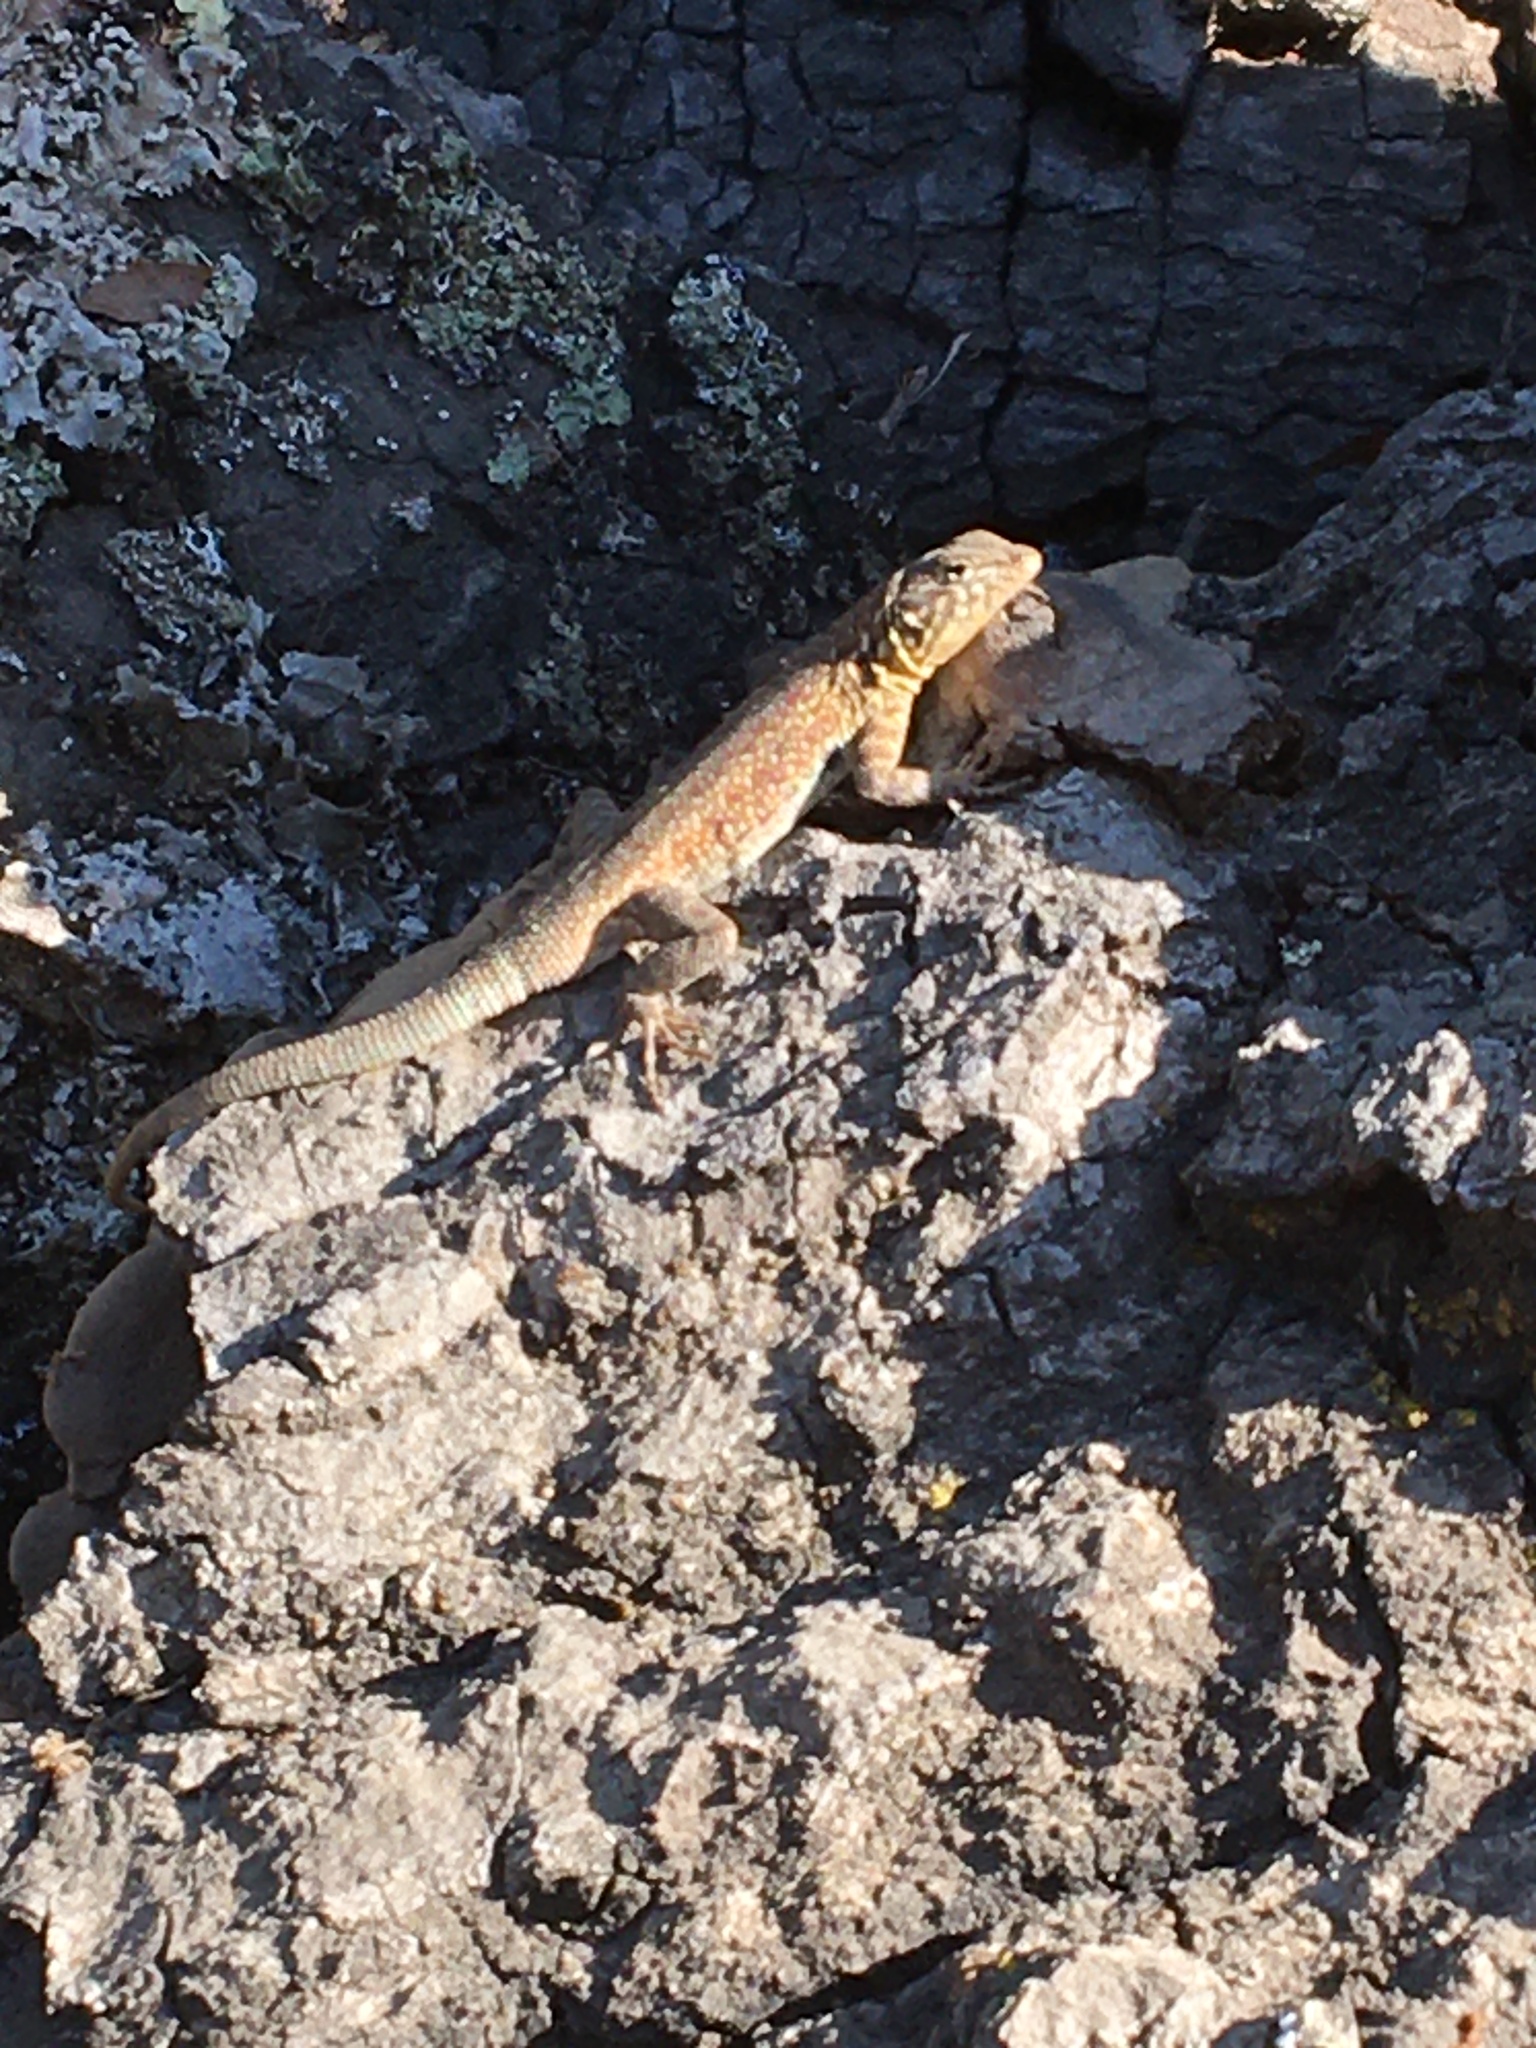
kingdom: Animalia
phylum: Chordata
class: Squamata
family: Phrynosomatidae
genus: Uta
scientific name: Uta stansburiana
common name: Side-blotched lizard
